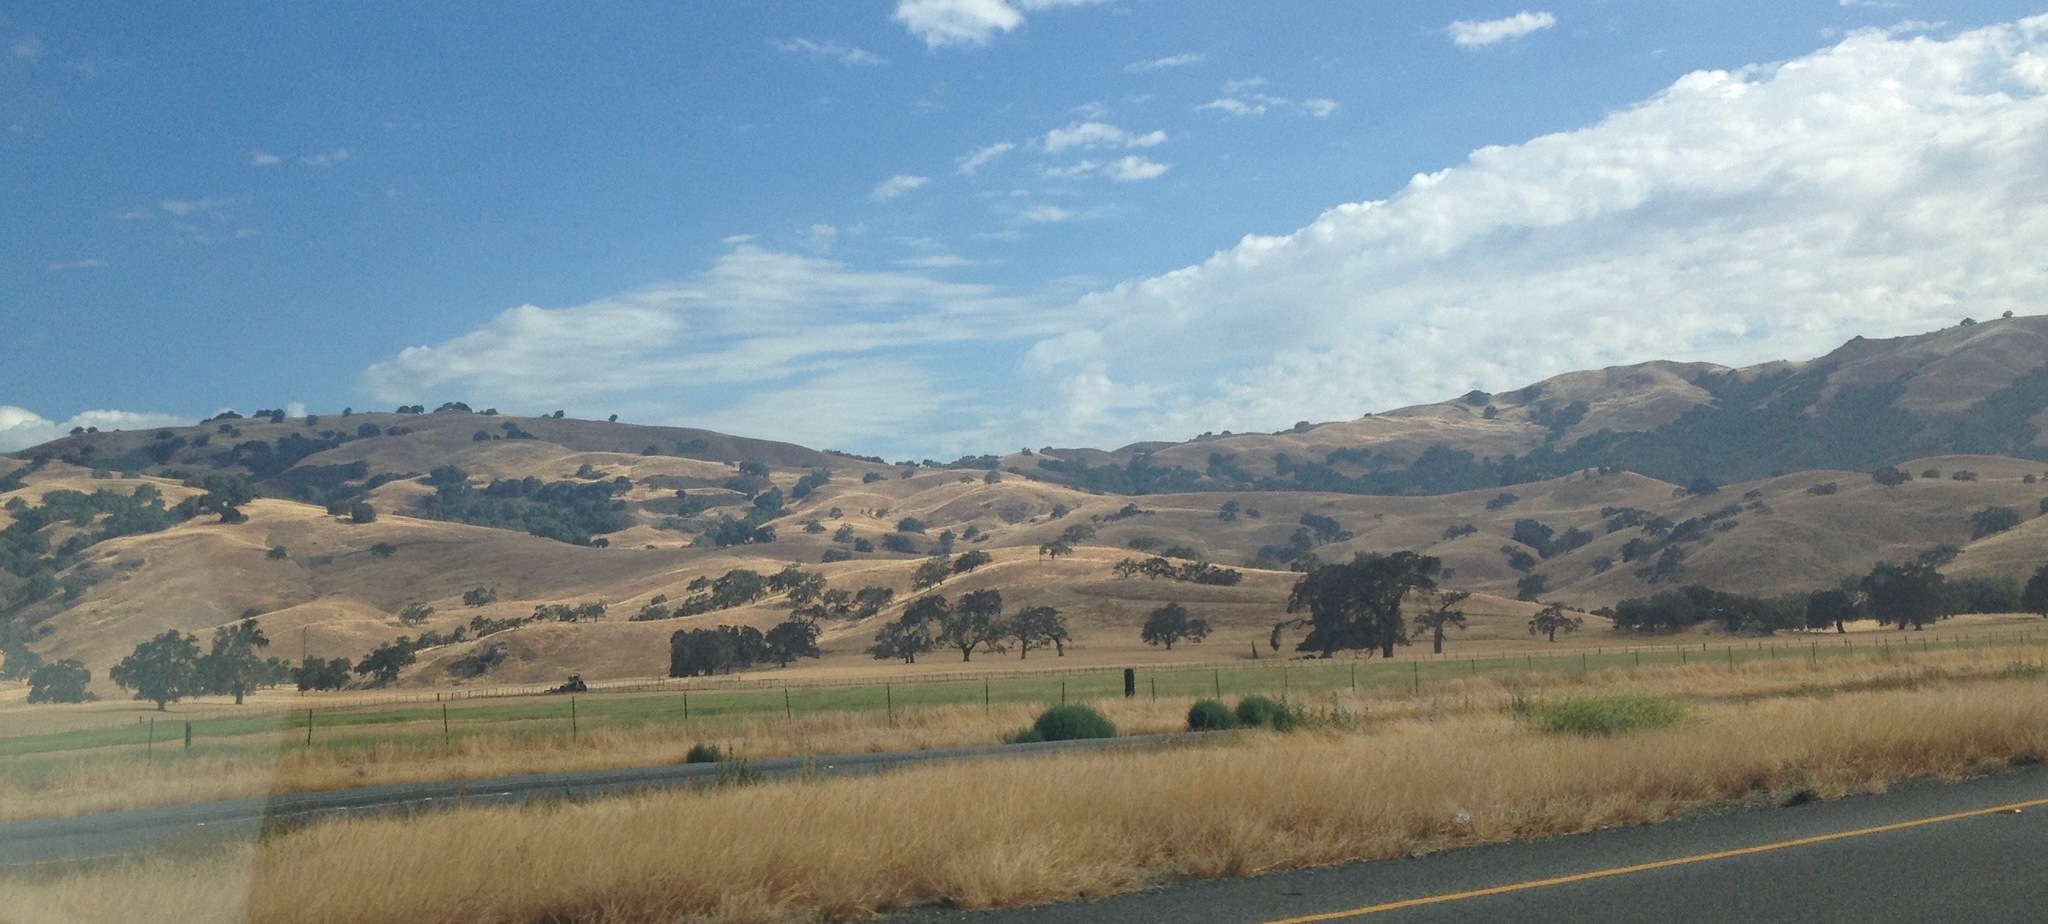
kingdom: Plantae
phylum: Tracheophyta
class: Magnoliopsida
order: Fagales
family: Fagaceae
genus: Quercus
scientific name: Quercus agrifolia
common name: California live oak
